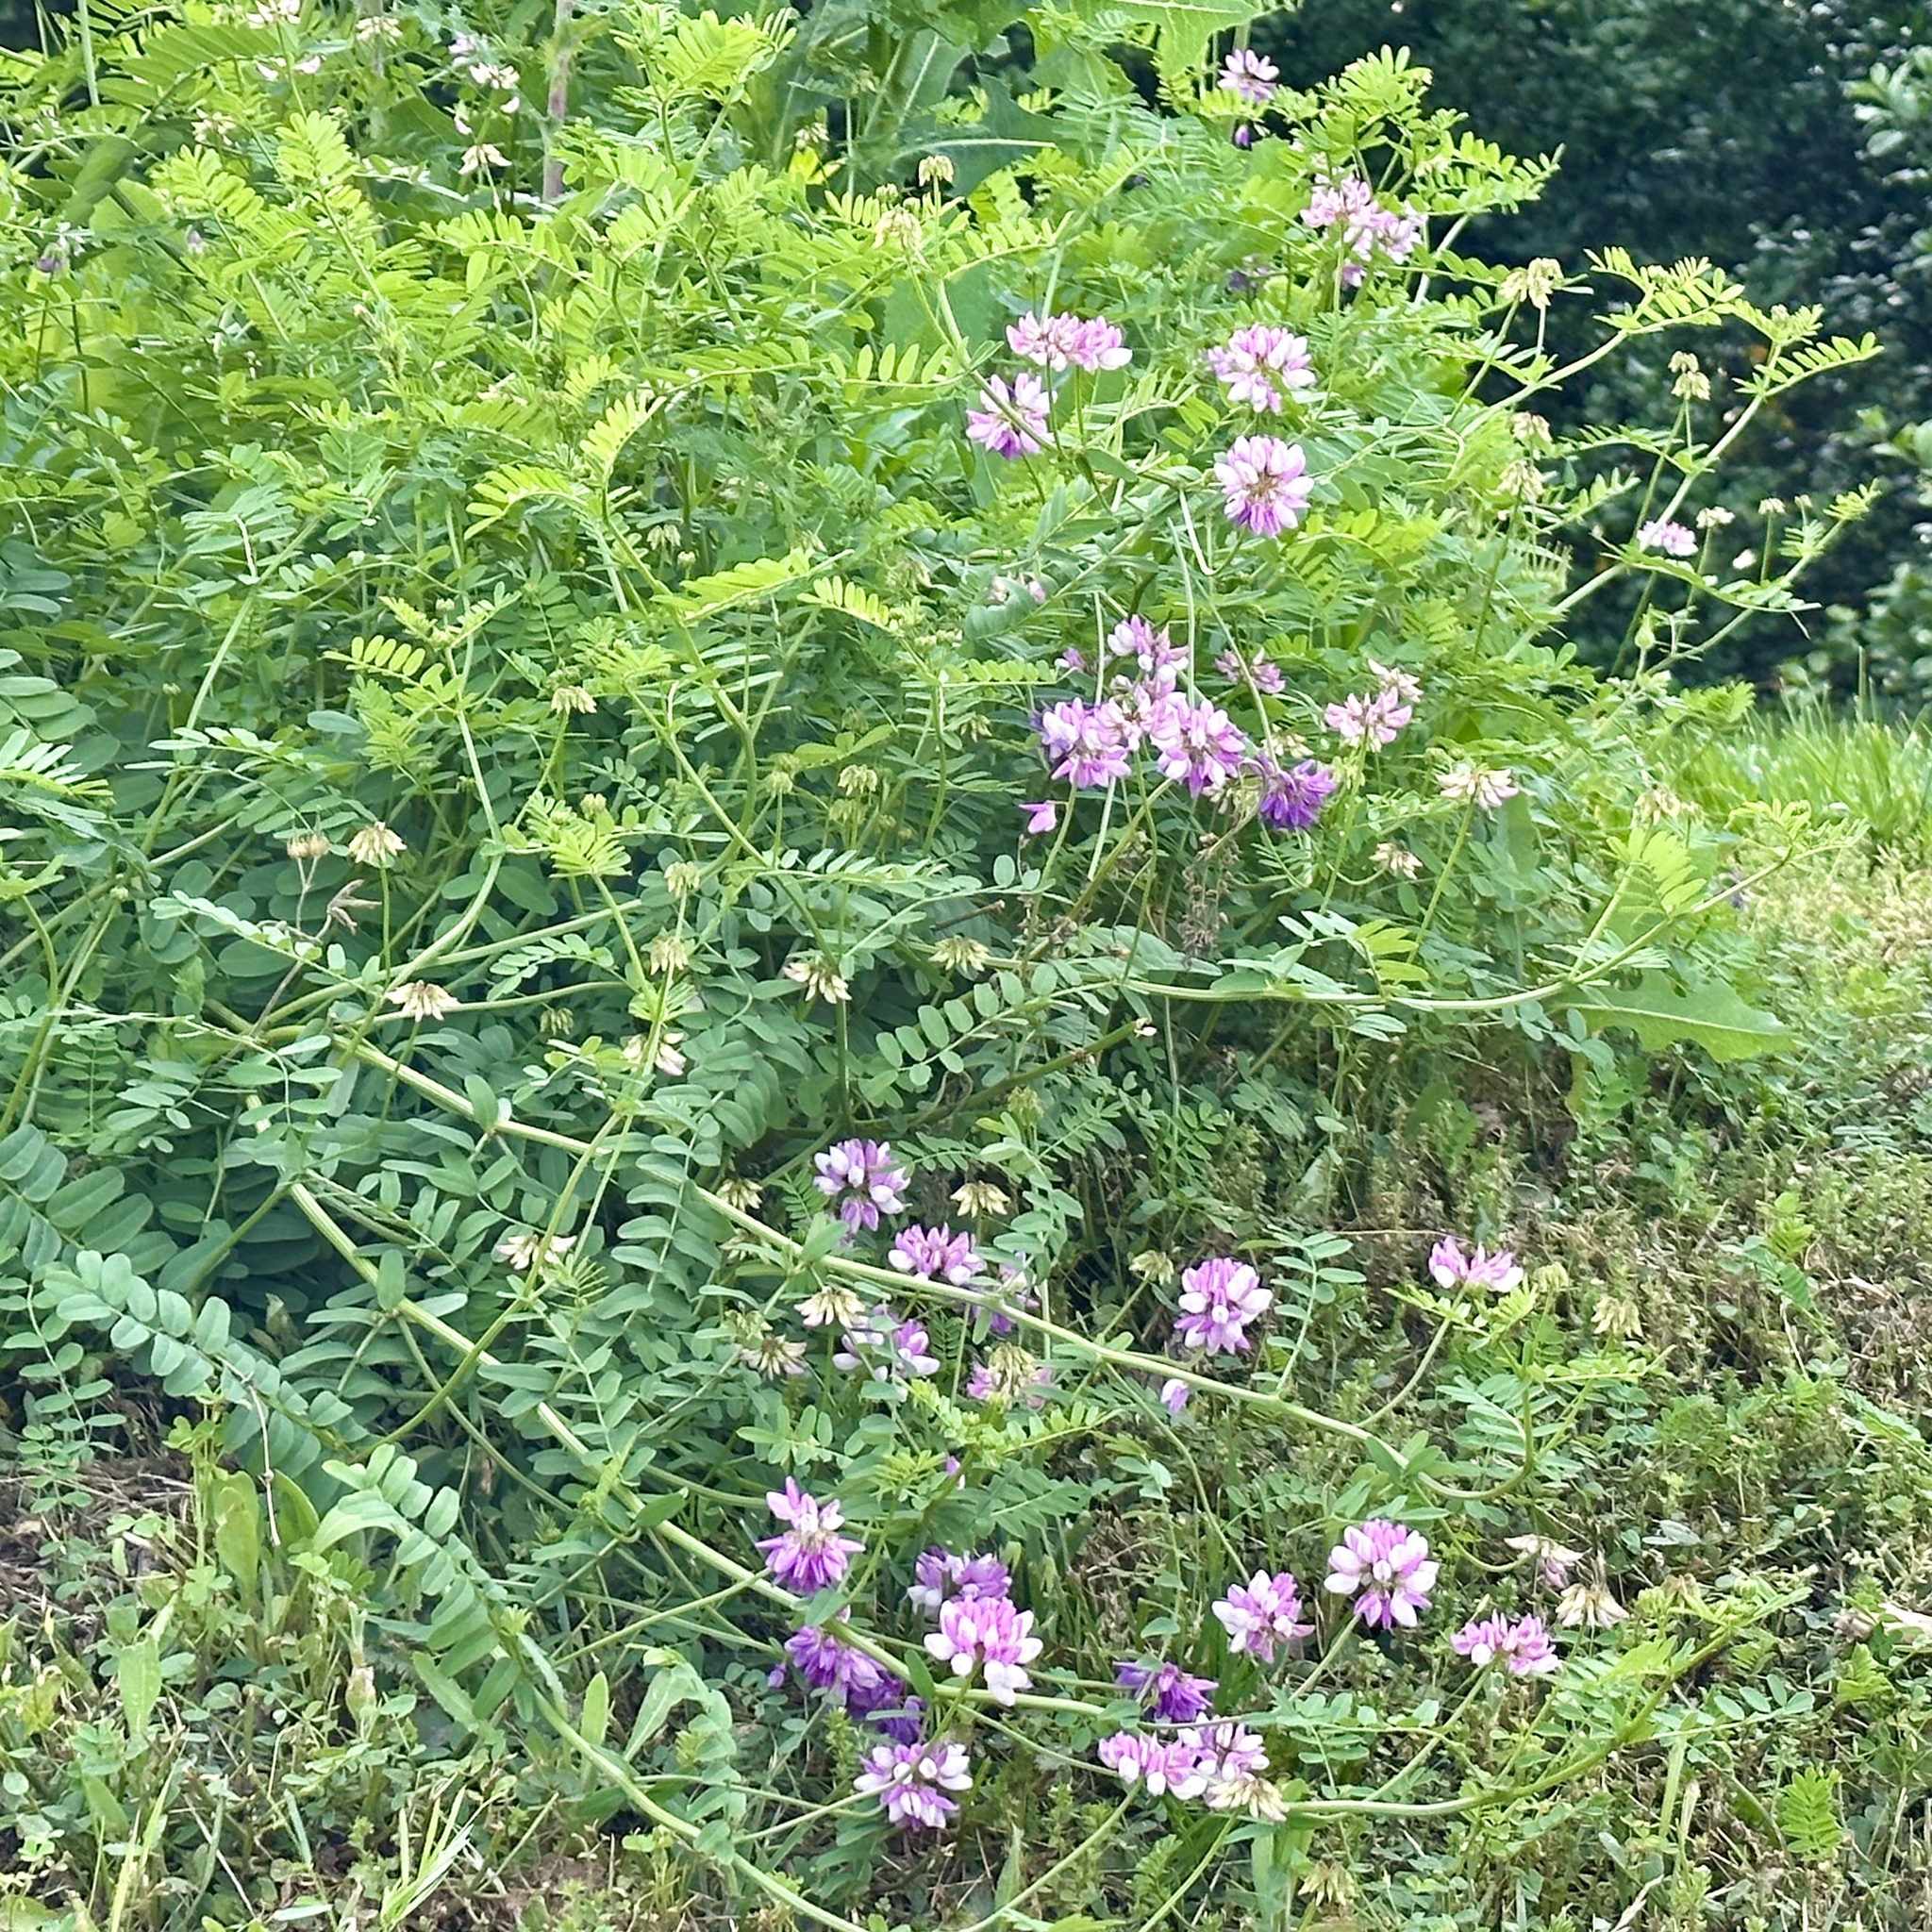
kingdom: Plantae
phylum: Tracheophyta
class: Magnoliopsida
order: Fabales
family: Fabaceae
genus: Coronilla
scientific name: Coronilla varia
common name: Crownvetch
